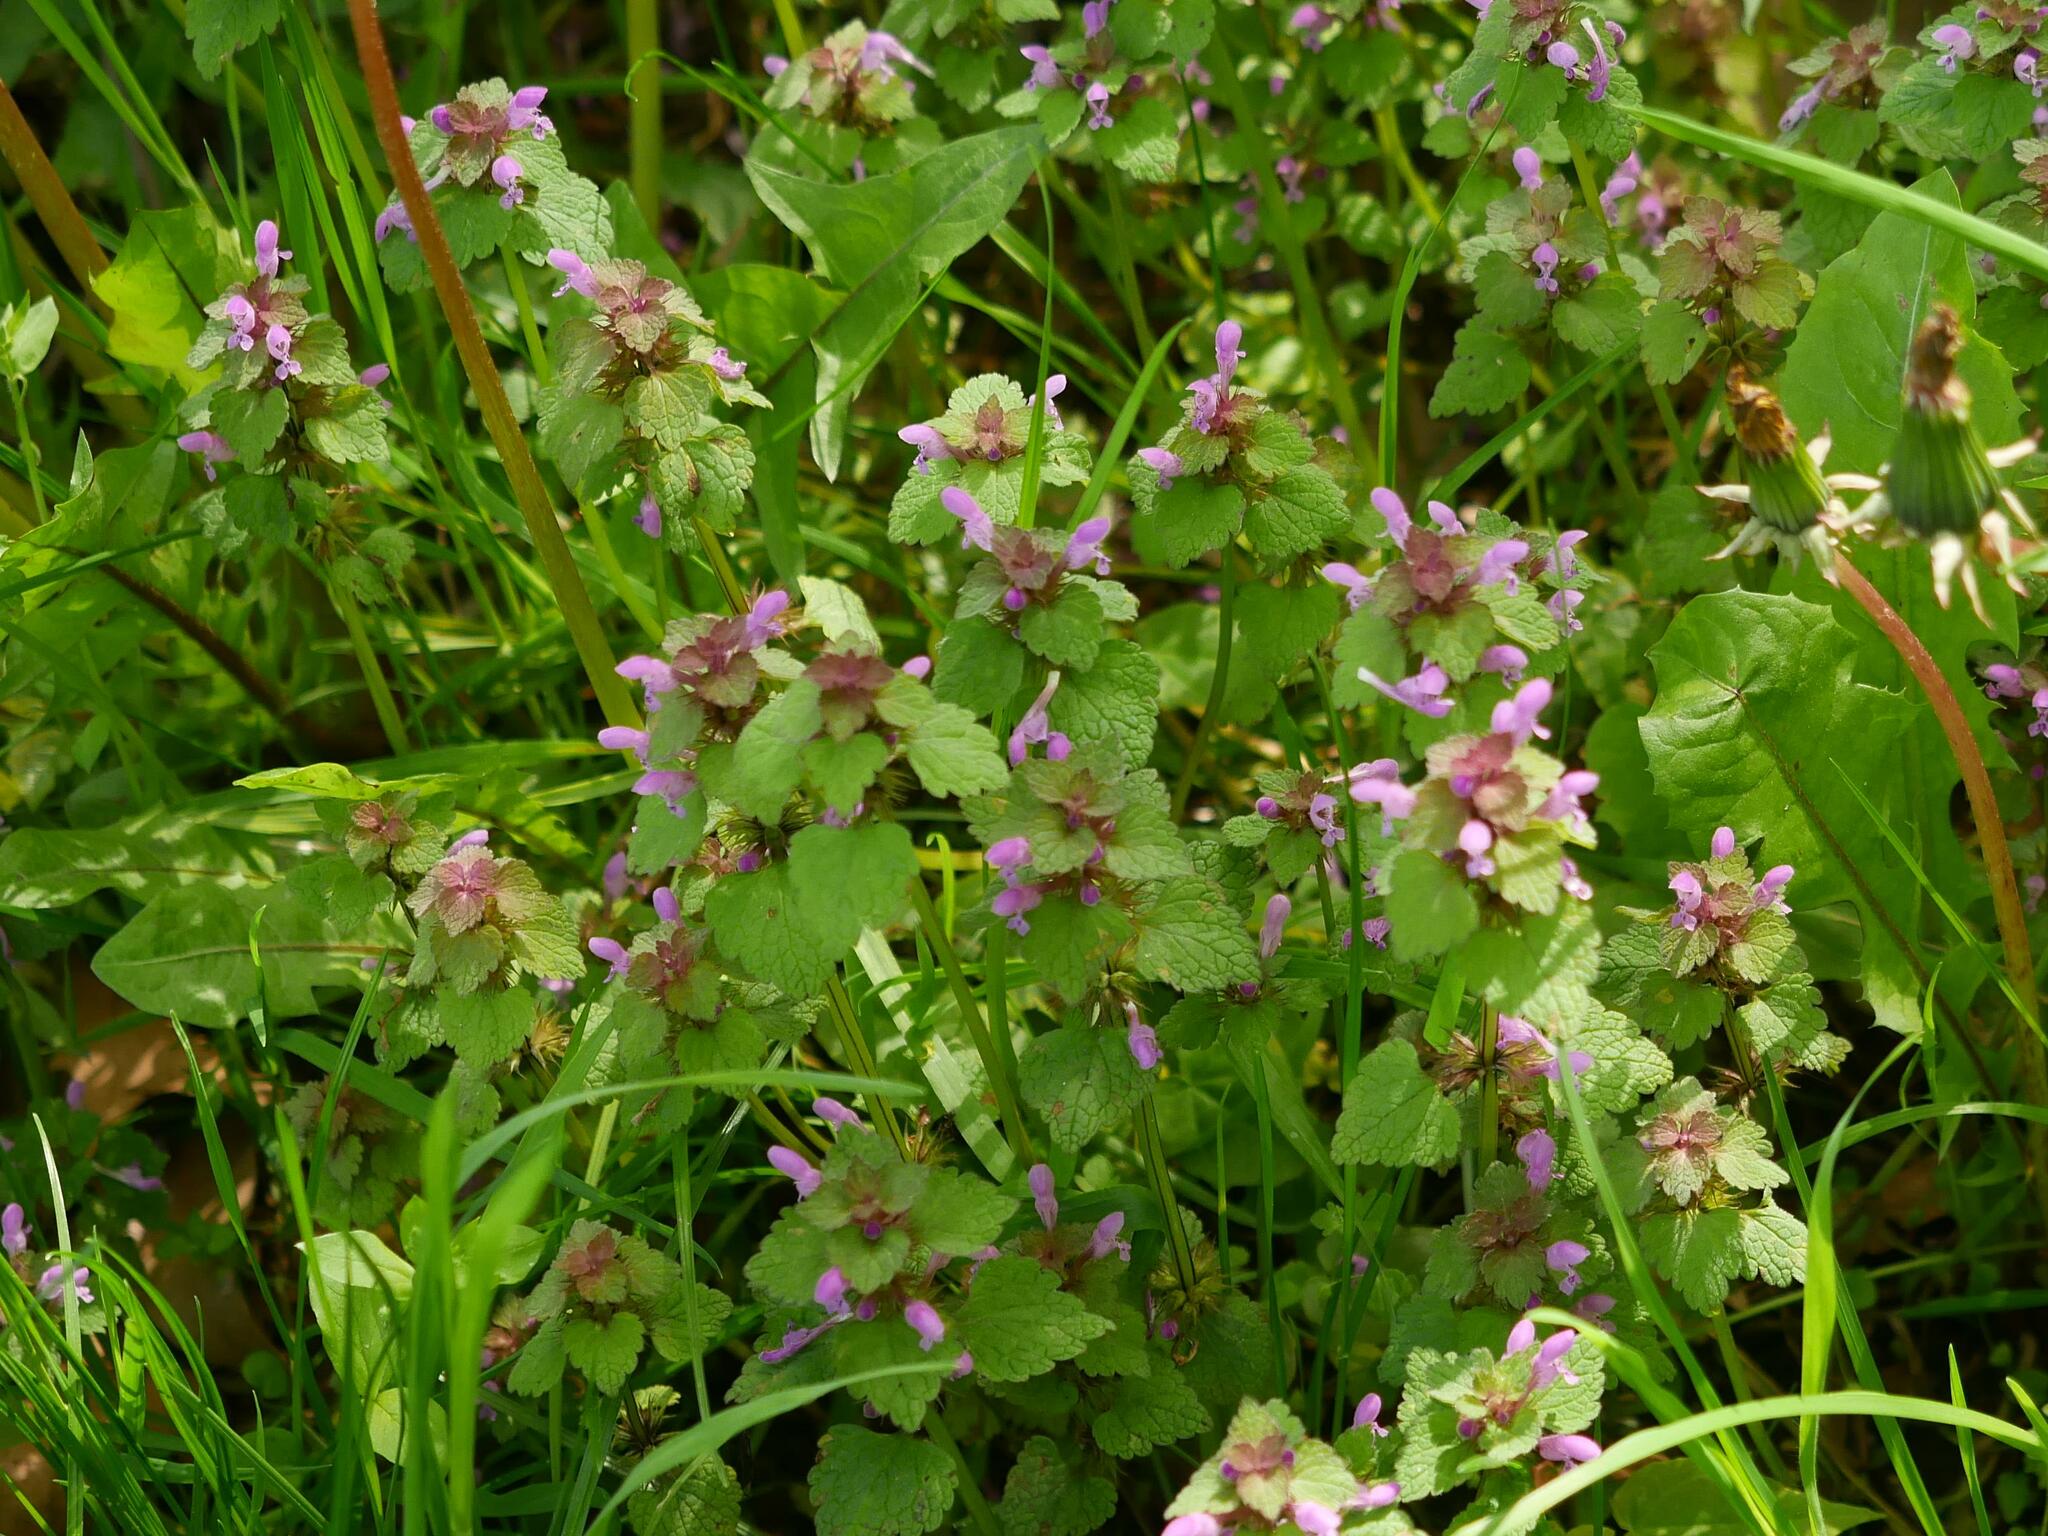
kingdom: Plantae
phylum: Tracheophyta
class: Magnoliopsida
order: Lamiales
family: Lamiaceae
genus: Lamium
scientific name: Lamium purpureum
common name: Red dead-nettle
